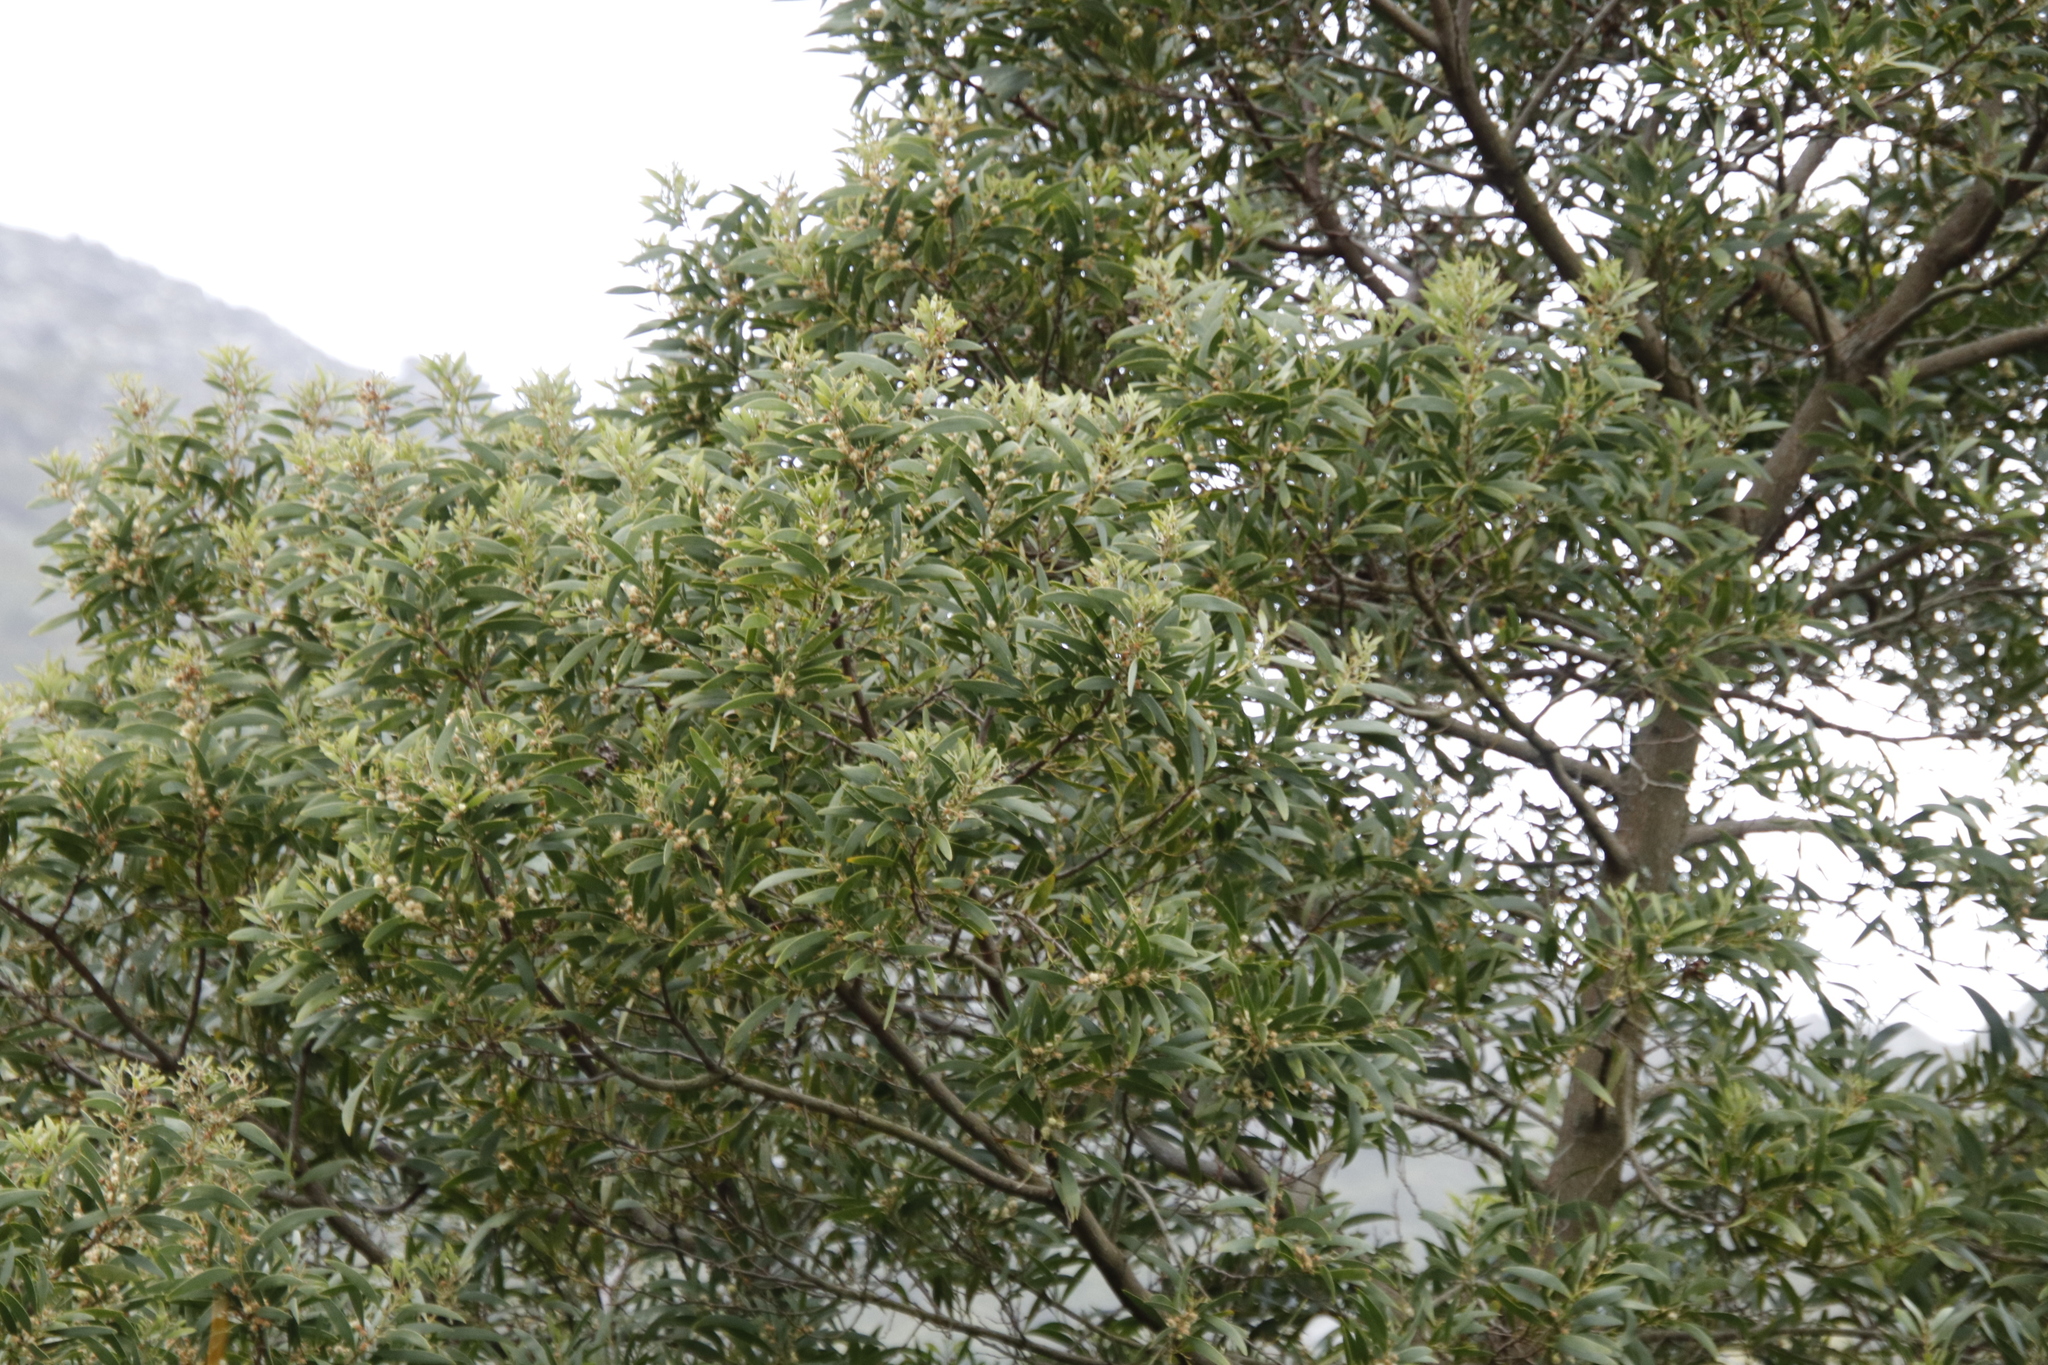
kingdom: Plantae
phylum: Tracheophyta
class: Magnoliopsida
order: Fabales
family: Fabaceae
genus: Acacia
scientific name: Acacia melanoxylon
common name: Blackwood
